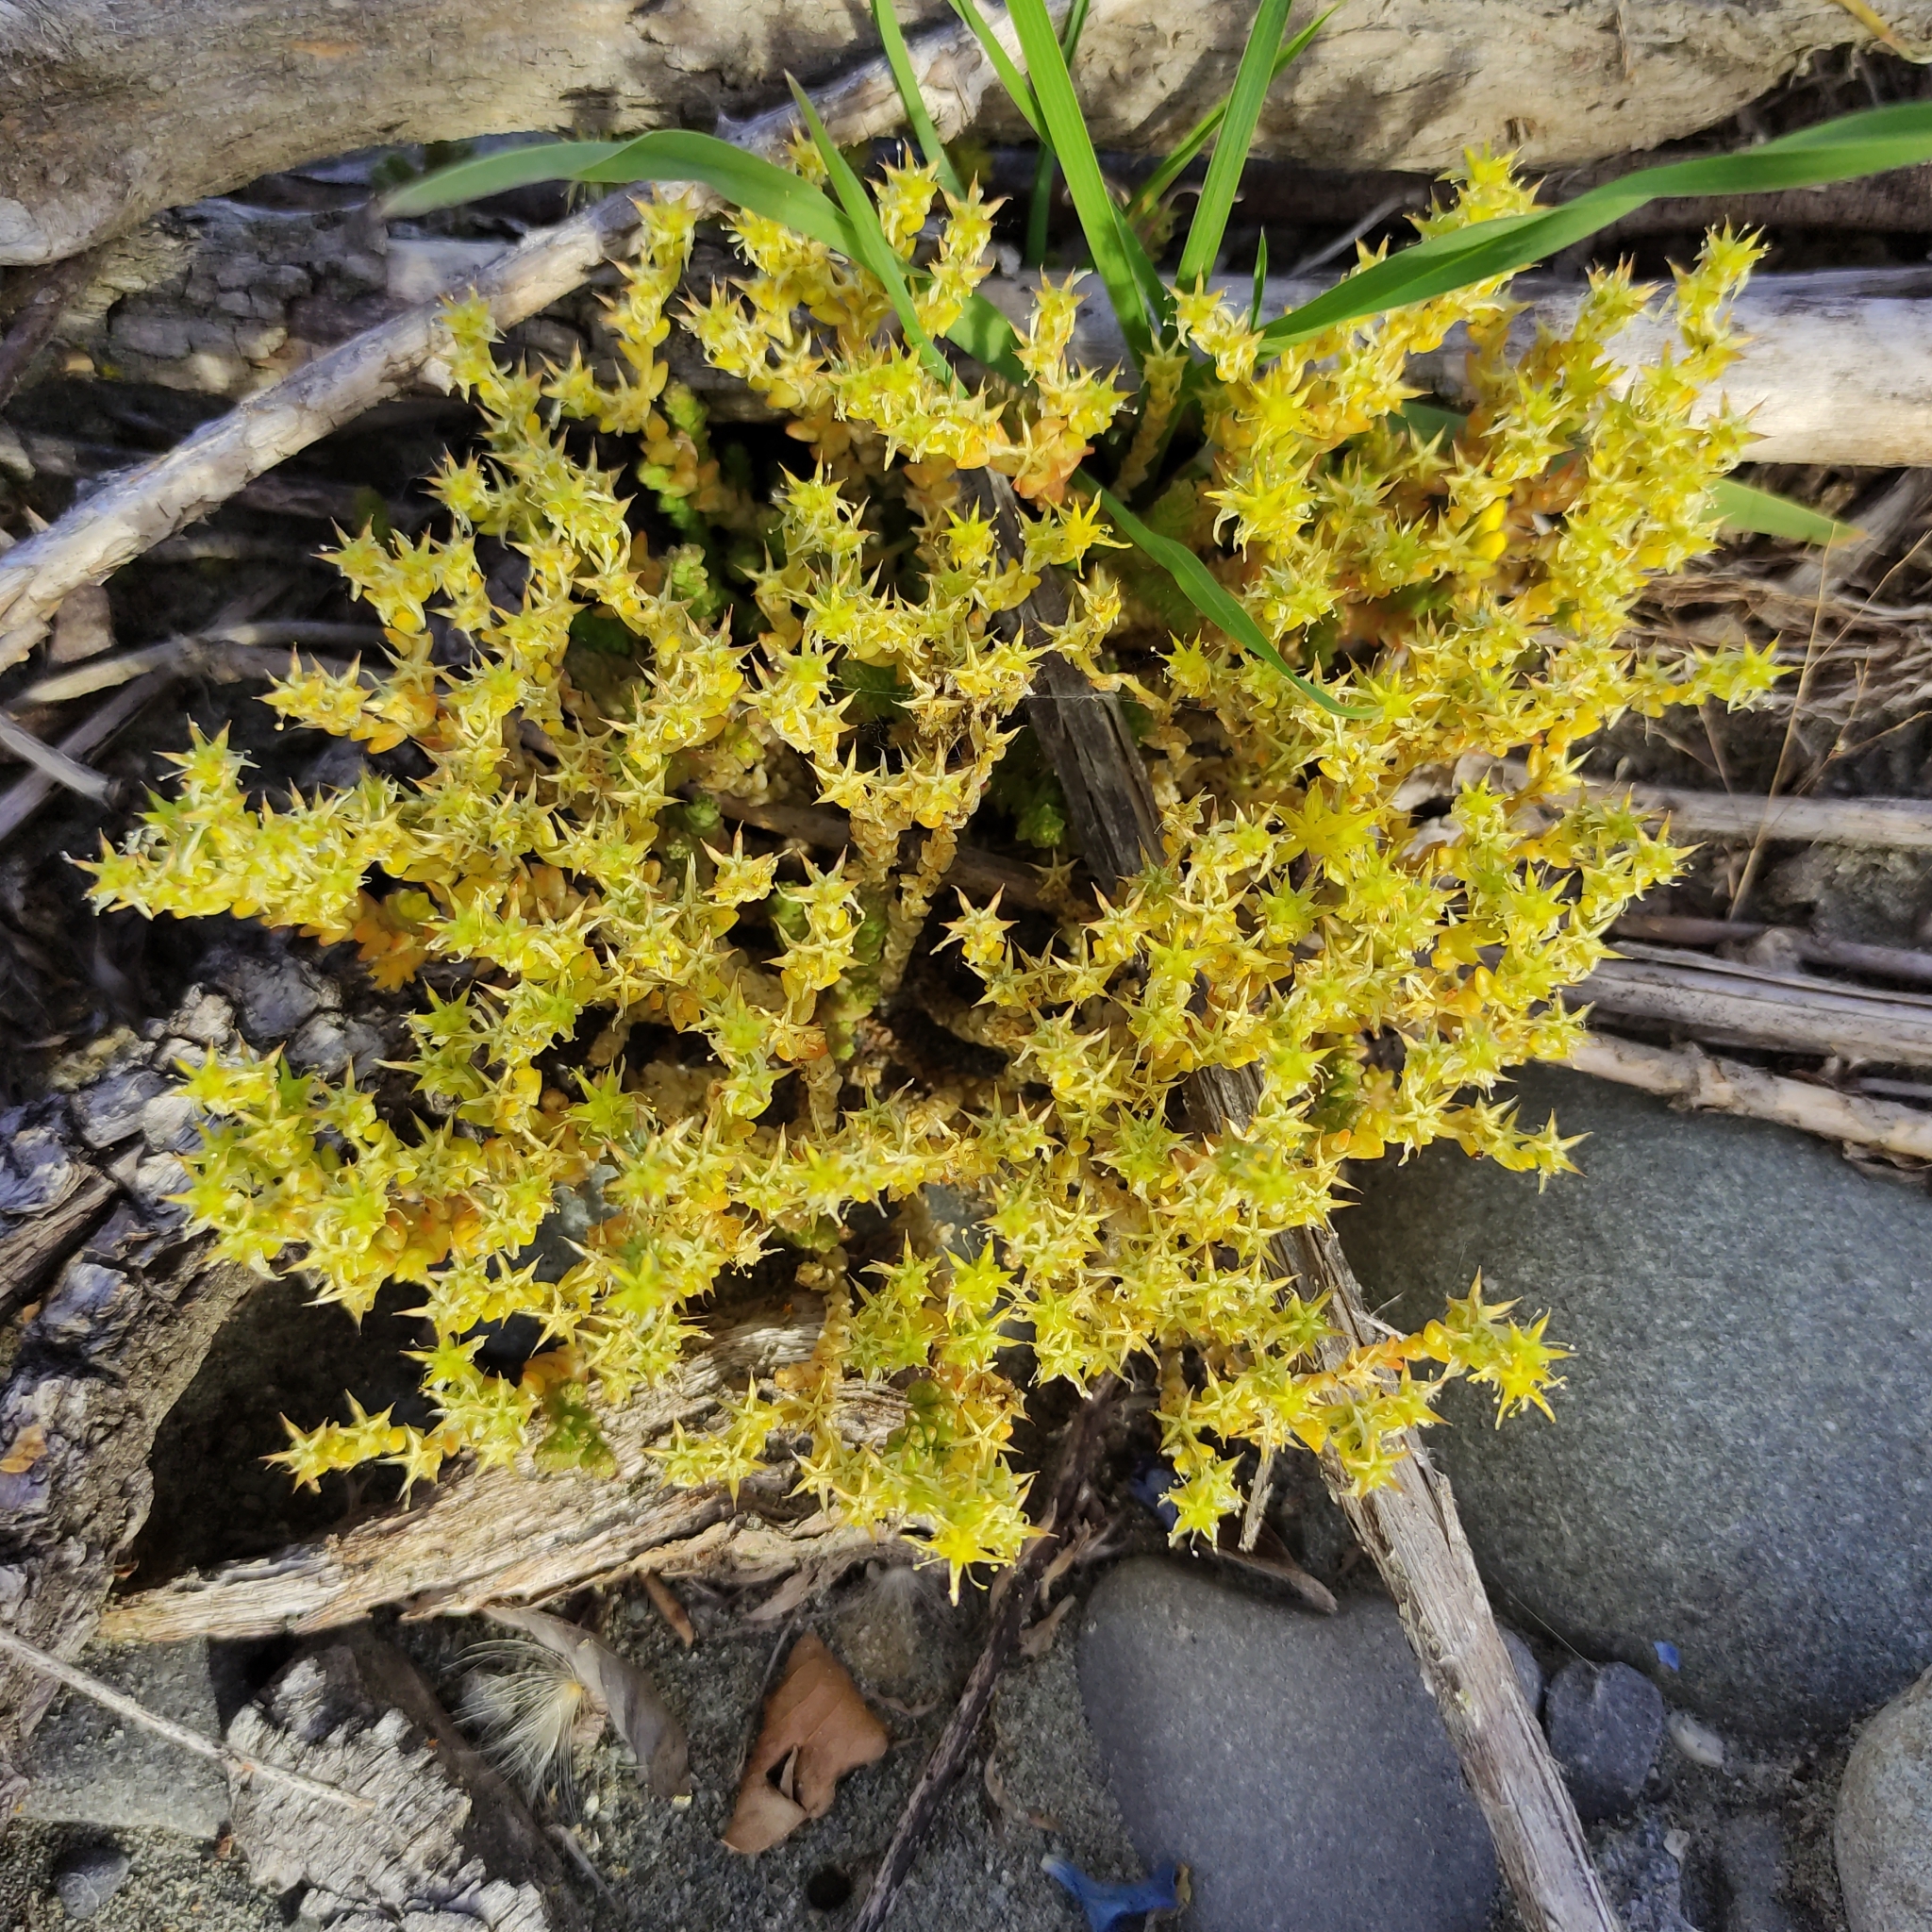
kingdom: Plantae
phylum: Tracheophyta
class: Magnoliopsida
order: Saxifragales
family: Crassulaceae
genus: Sedum
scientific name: Sedum acre
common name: Biting stonecrop
